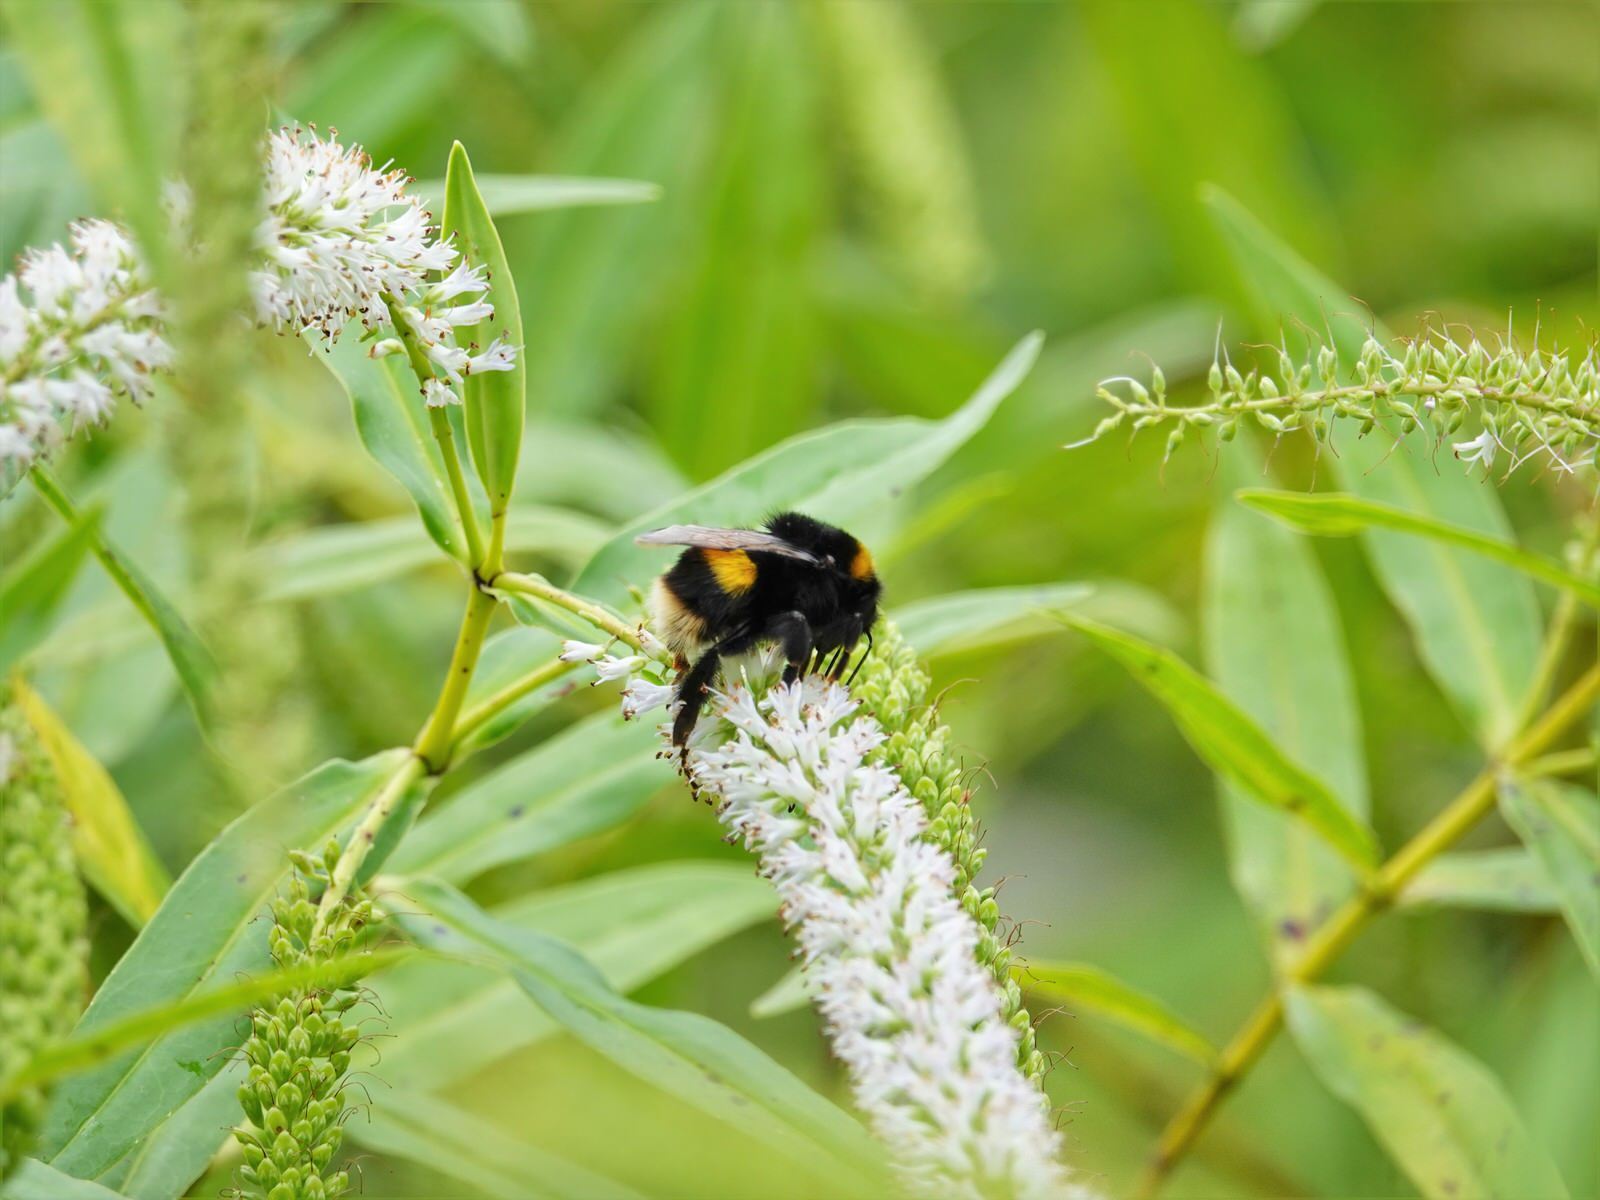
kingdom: Animalia
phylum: Arthropoda
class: Insecta
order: Hymenoptera
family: Apidae
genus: Bombus
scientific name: Bombus terrestris
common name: Buff-tailed bumblebee
